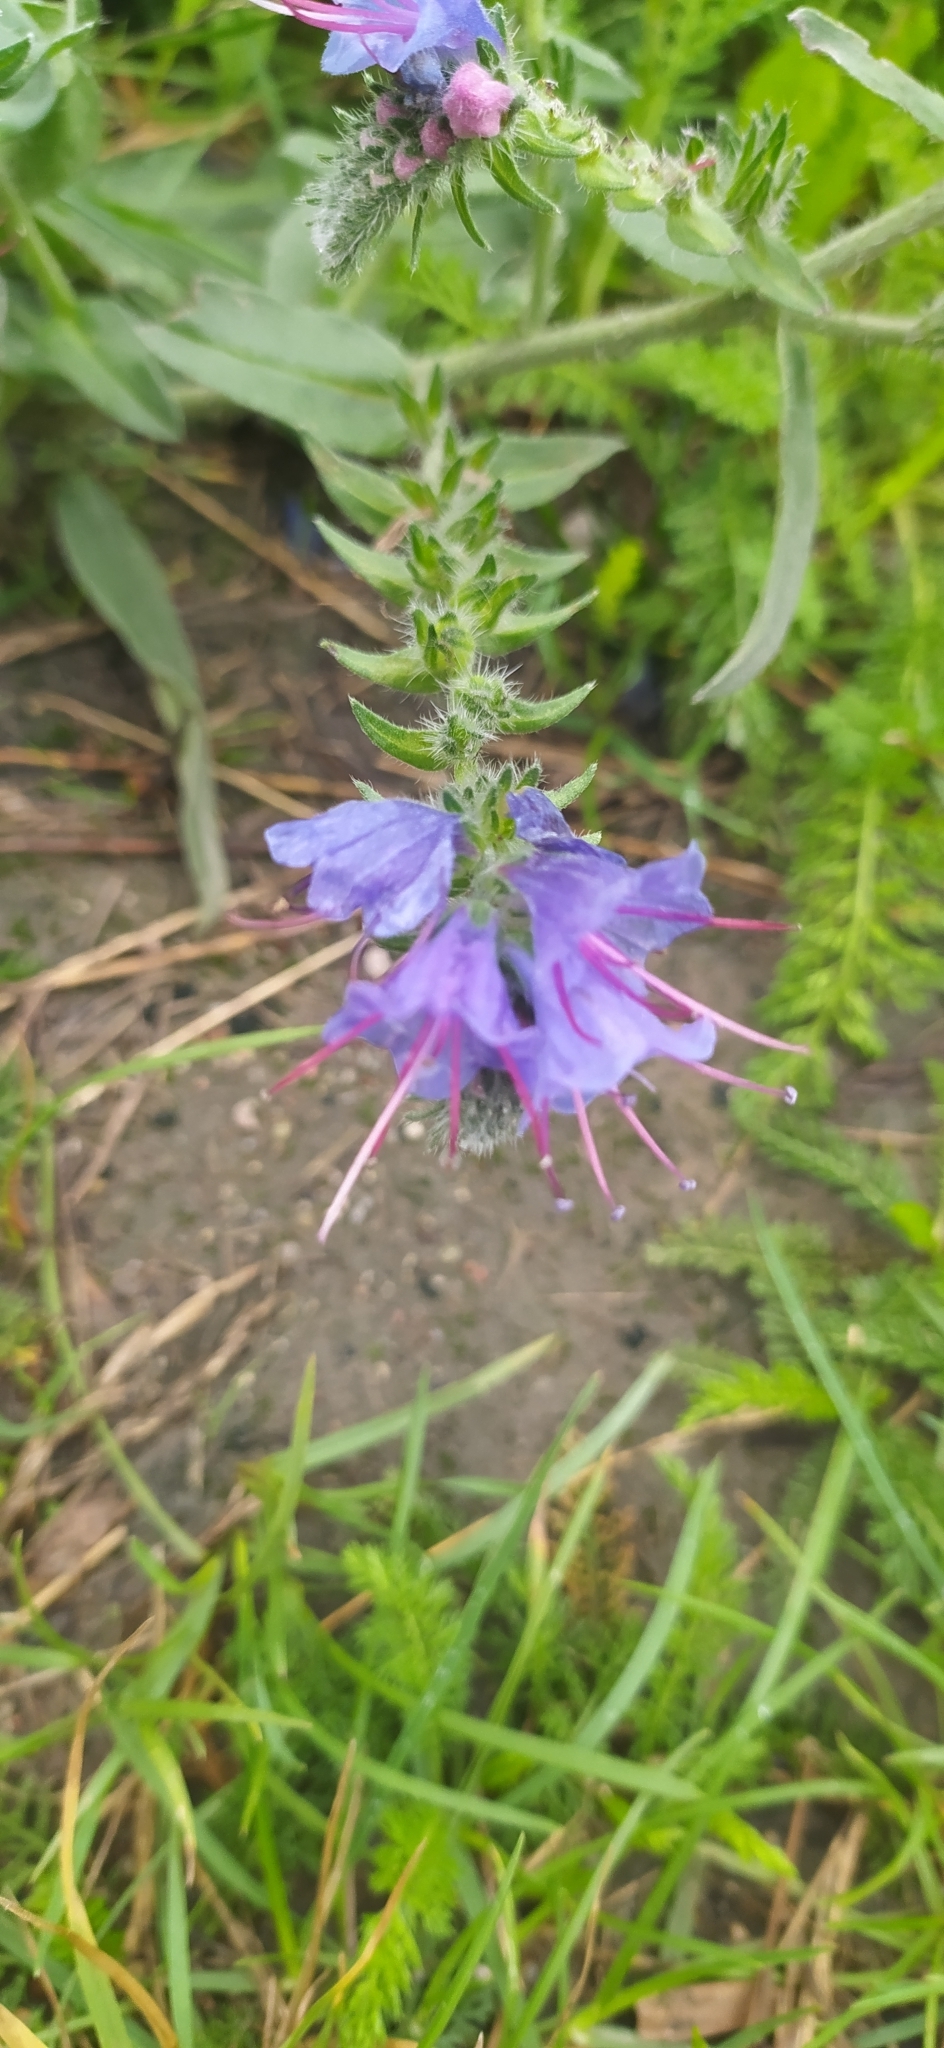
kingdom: Plantae
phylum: Tracheophyta
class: Magnoliopsida
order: Boraginales
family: Boraginaceae
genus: Echium
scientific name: Echium vulgare
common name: Common viper's bugloss
